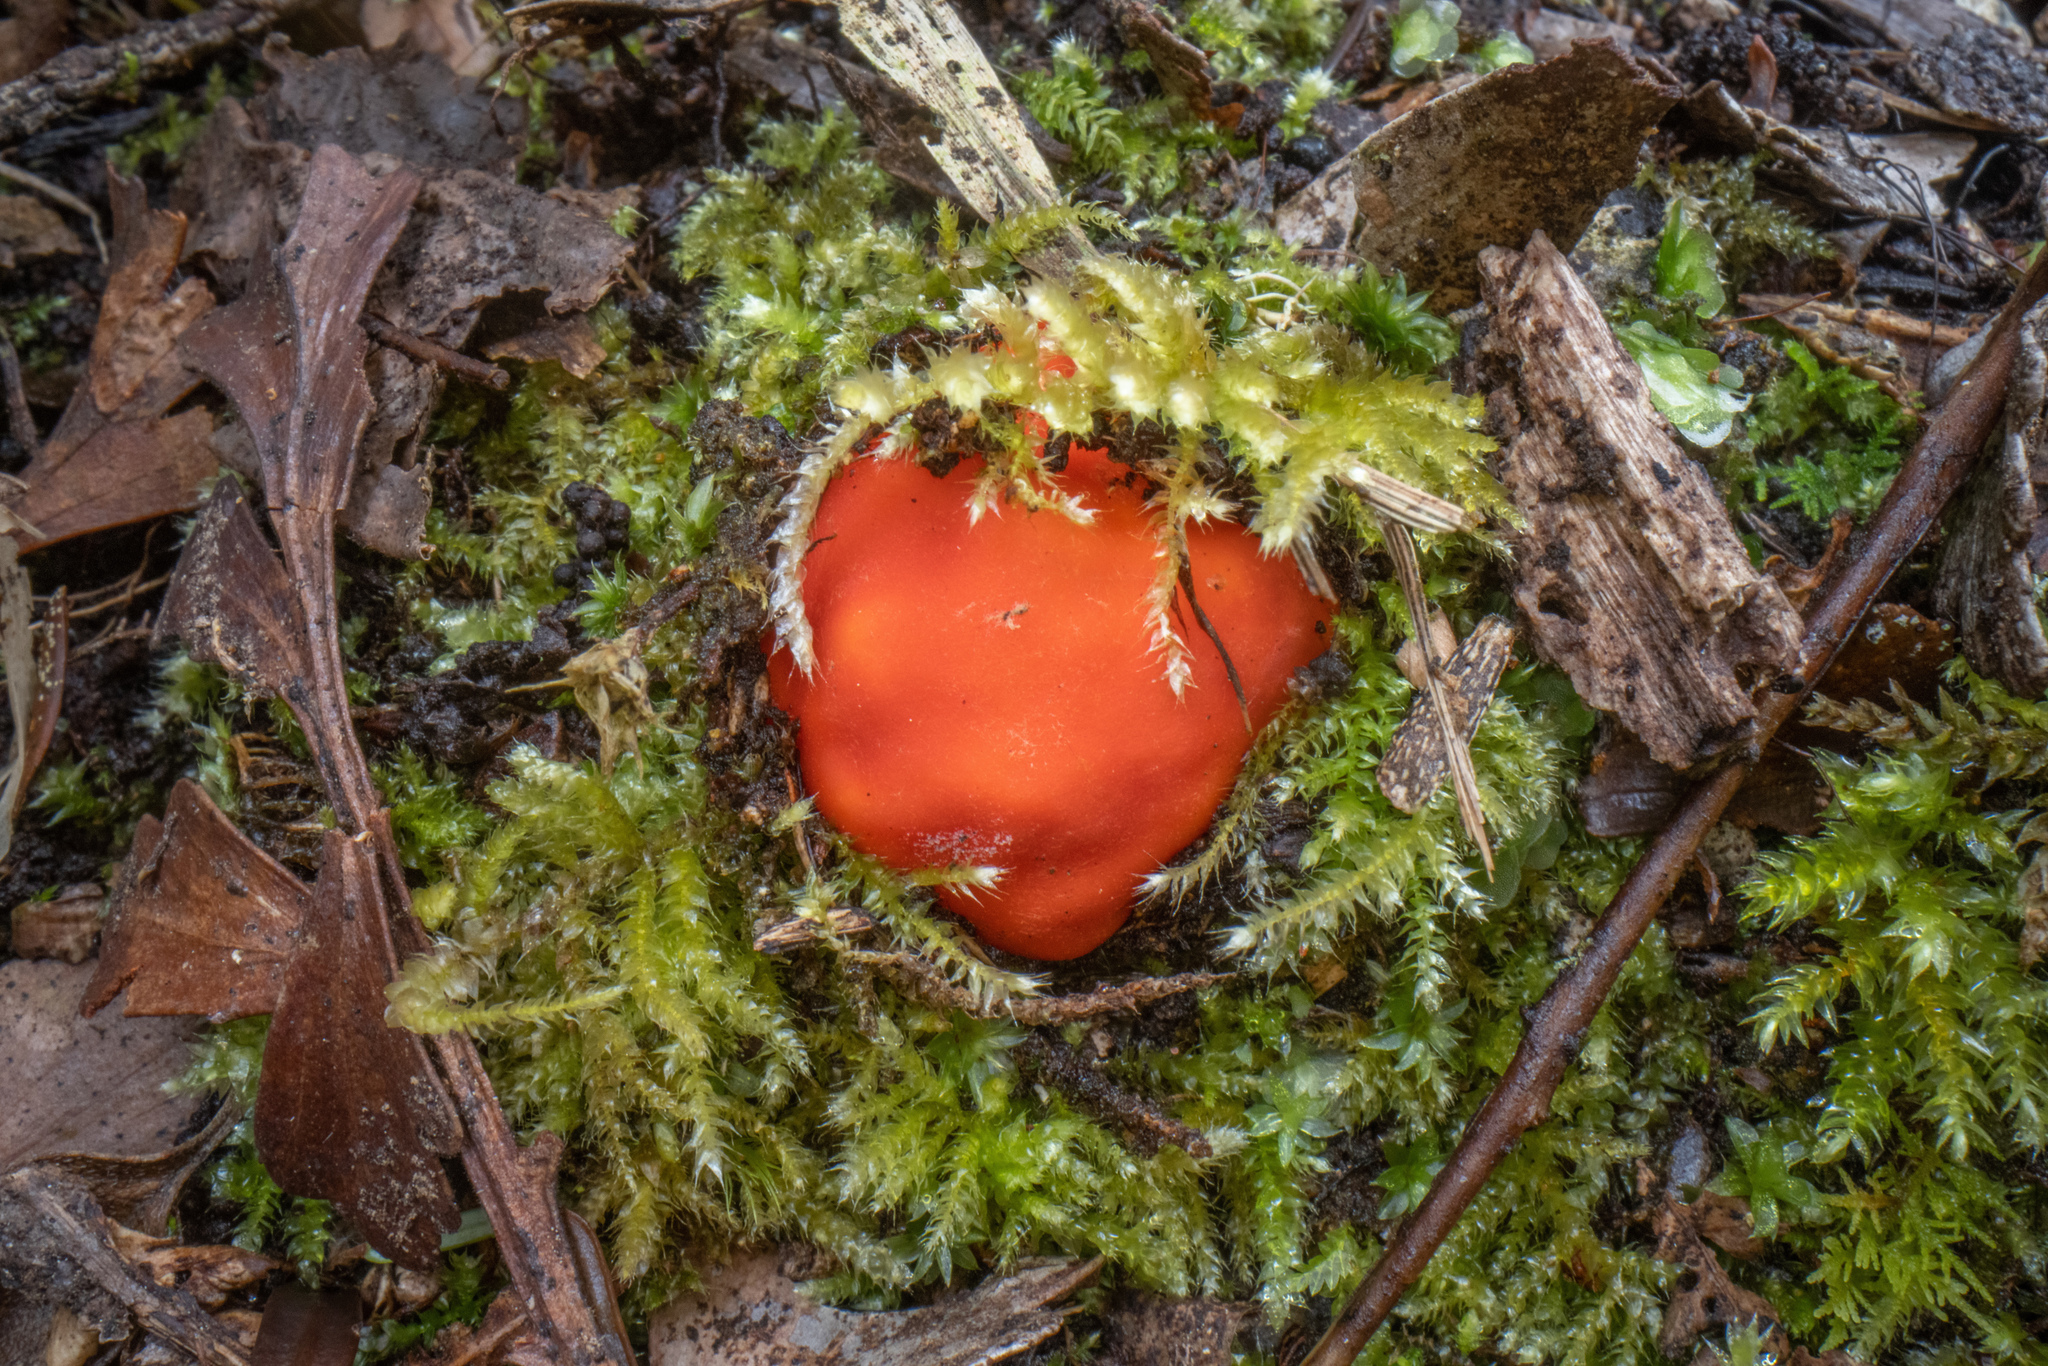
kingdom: Fungi
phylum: Ascomycota
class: Pezizomycetes
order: Pezizales
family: Pyronemataceae
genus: Paurocotylis
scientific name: Paurocotylis pila
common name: Scarlet berry truffle
